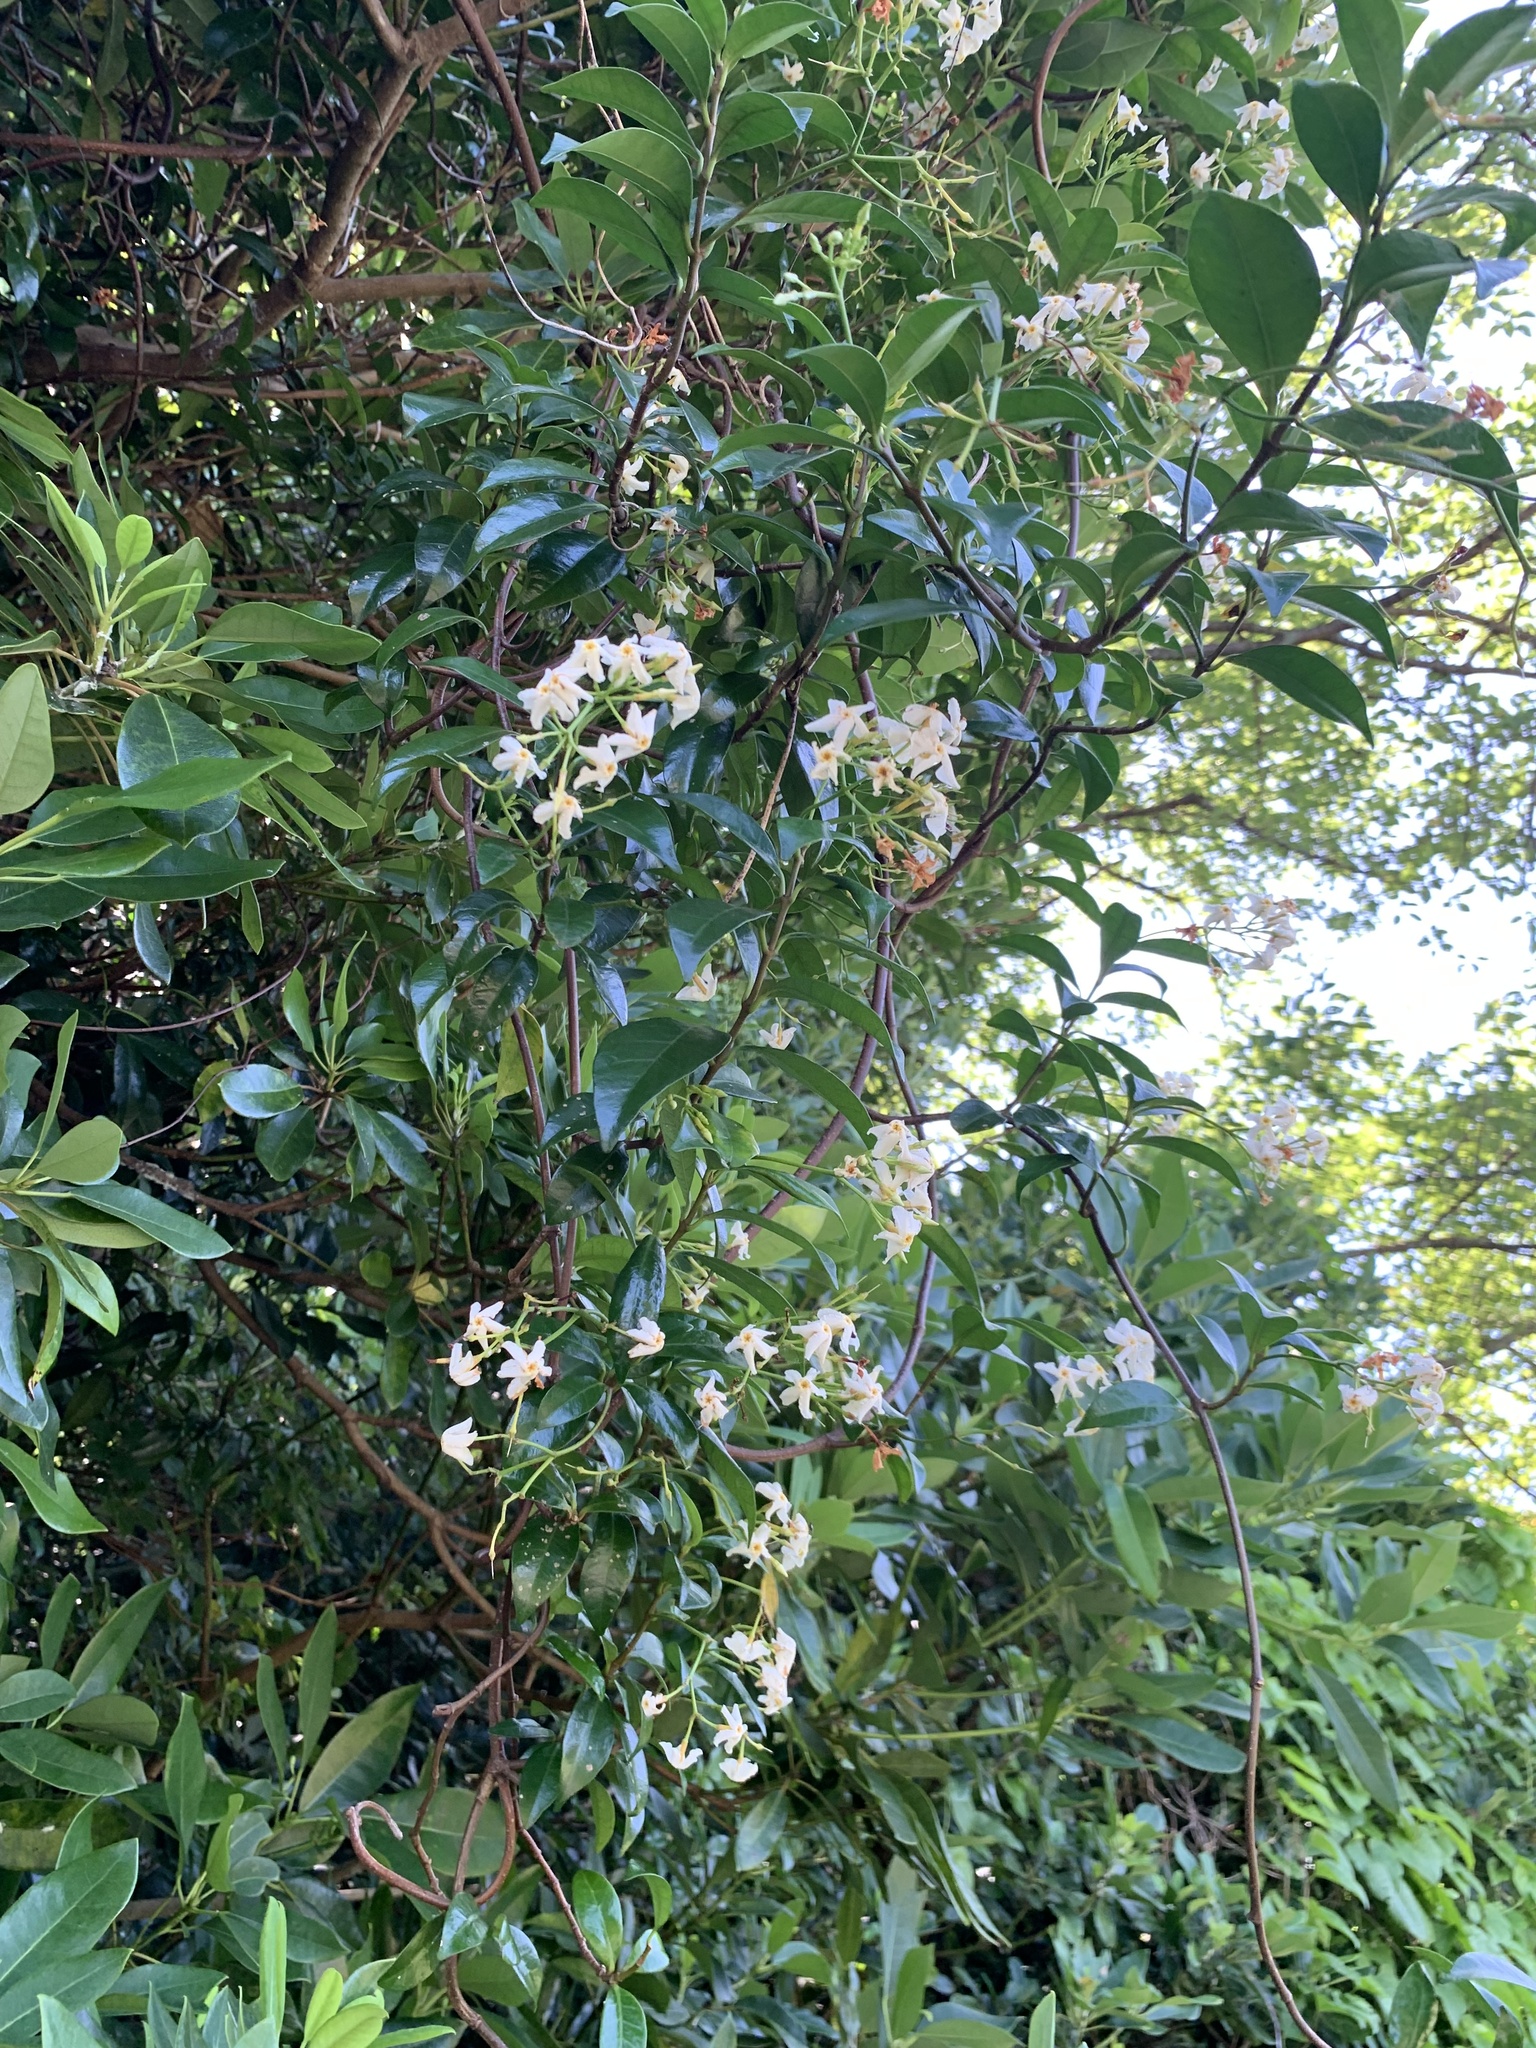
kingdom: Plantae
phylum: Tracheophyta
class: Magnoliopsida
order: Gentianales
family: Apocynaceae
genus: Trachelospermum
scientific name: Trachelospermum asiaticum
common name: Asiatic jasmine
